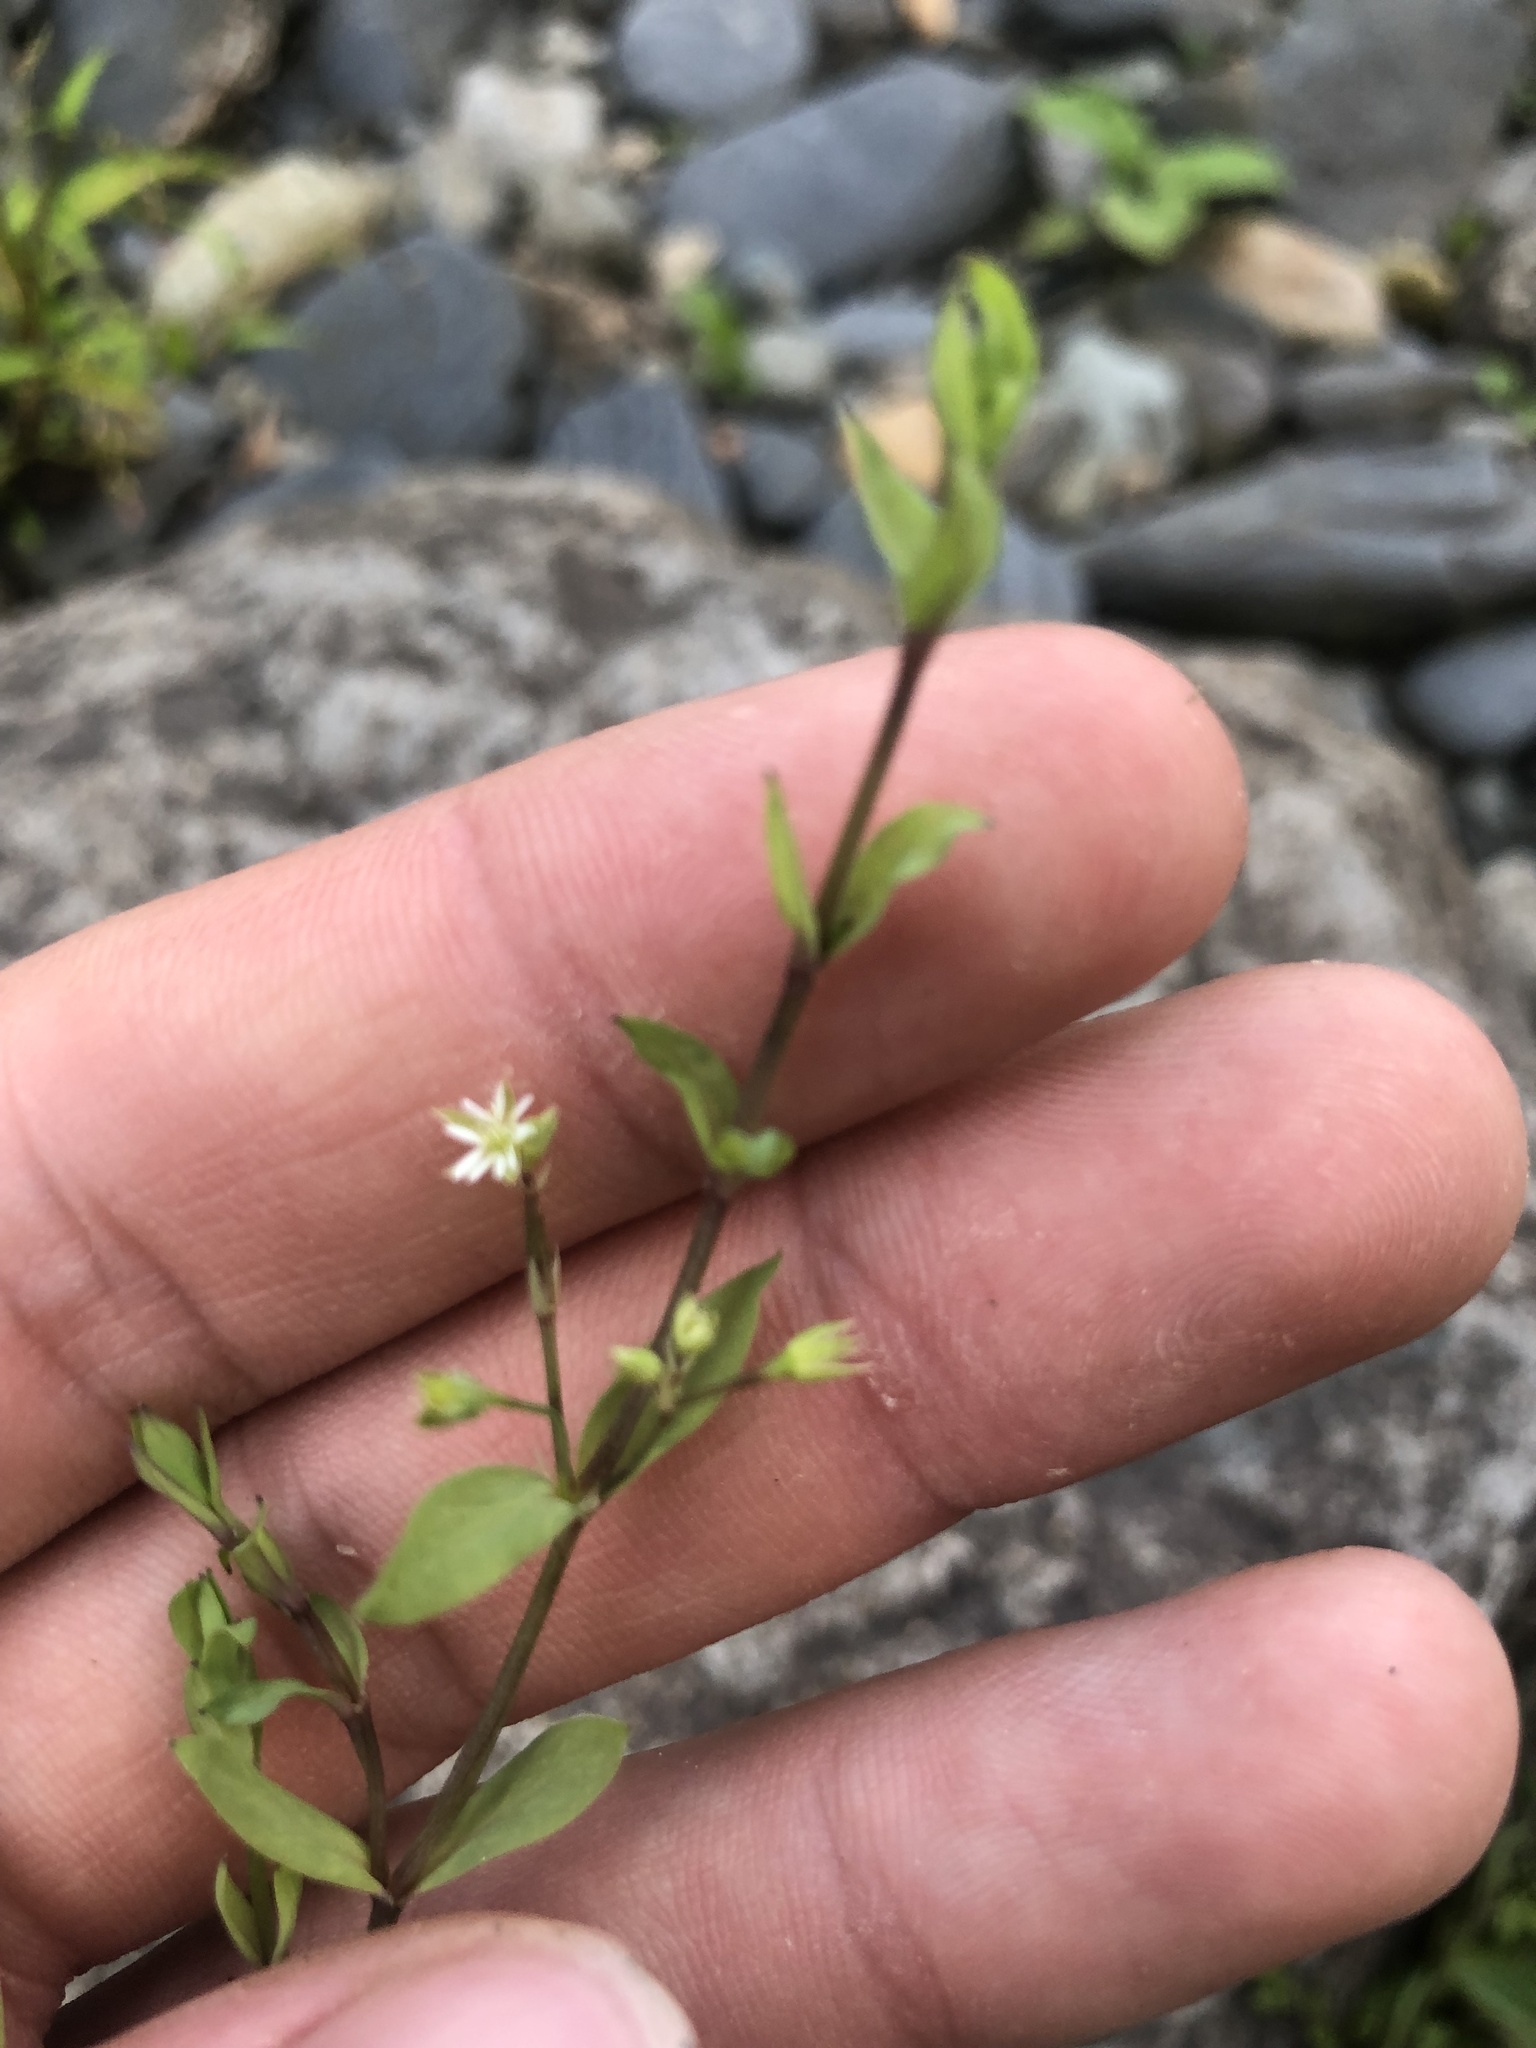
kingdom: Plantae
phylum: Tracheophyta
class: Magnoliopsida
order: Caryophyllales
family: Caryophyllaceae
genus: Stellaria
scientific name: Stellaria alsine
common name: Bog stitchwort
